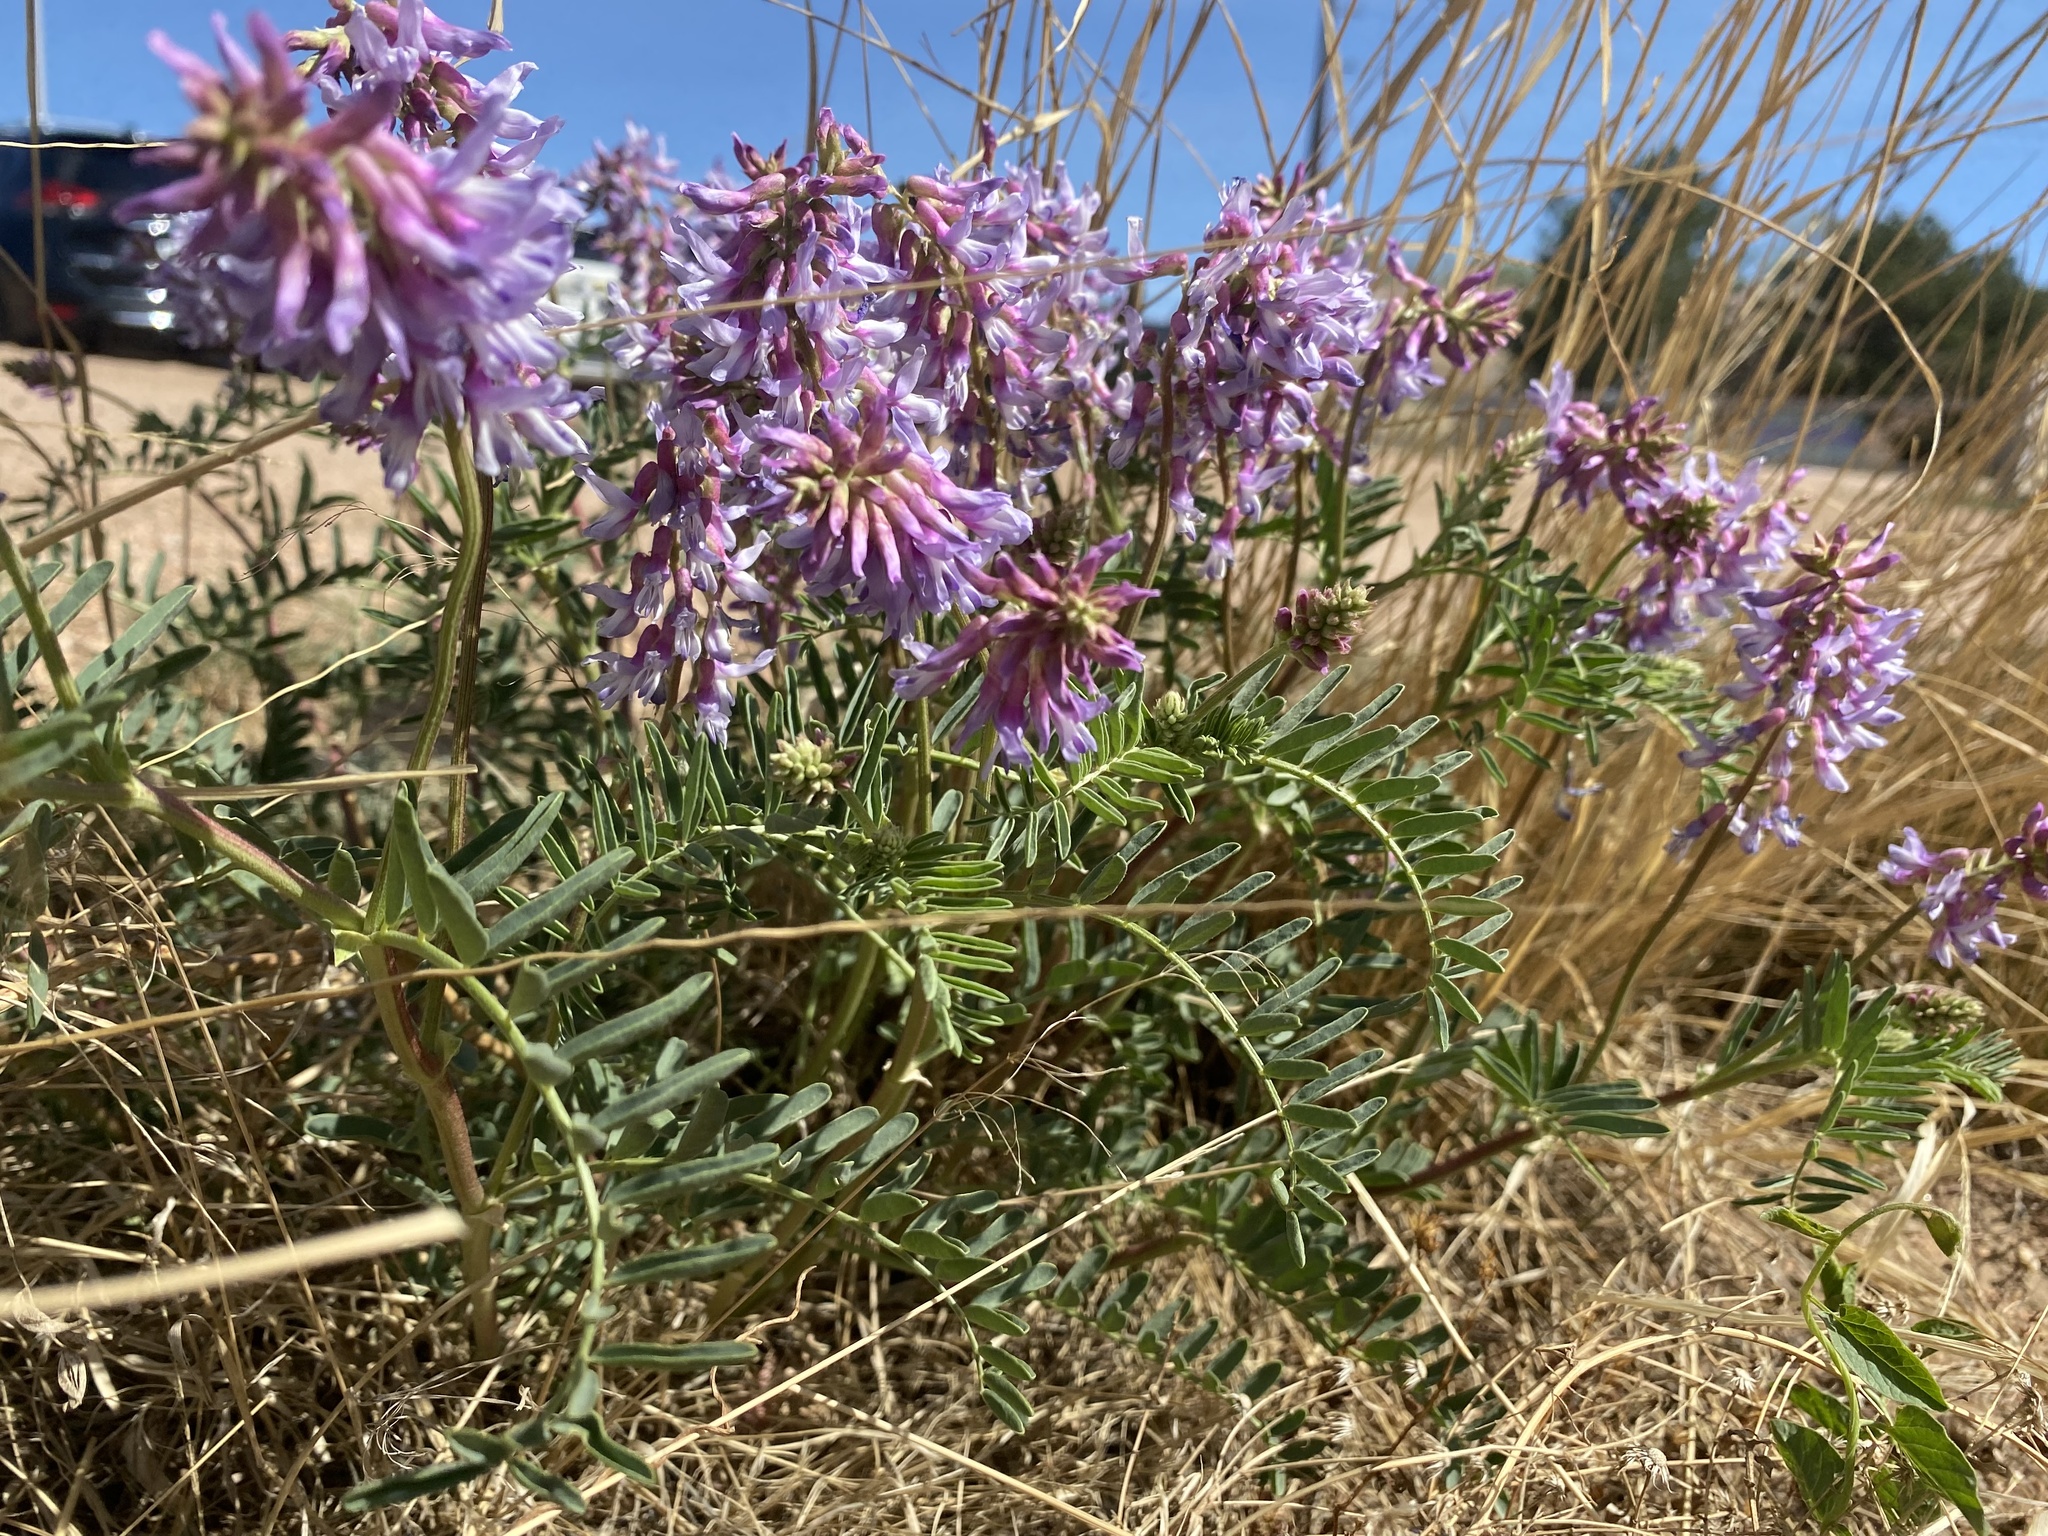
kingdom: Plantae
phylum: Tracheophyta
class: Magnoliopsida
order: Fabales
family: Fabaceae
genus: Astragalus
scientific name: Astragalus bisulcatus
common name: Two-groove milk-vetch
